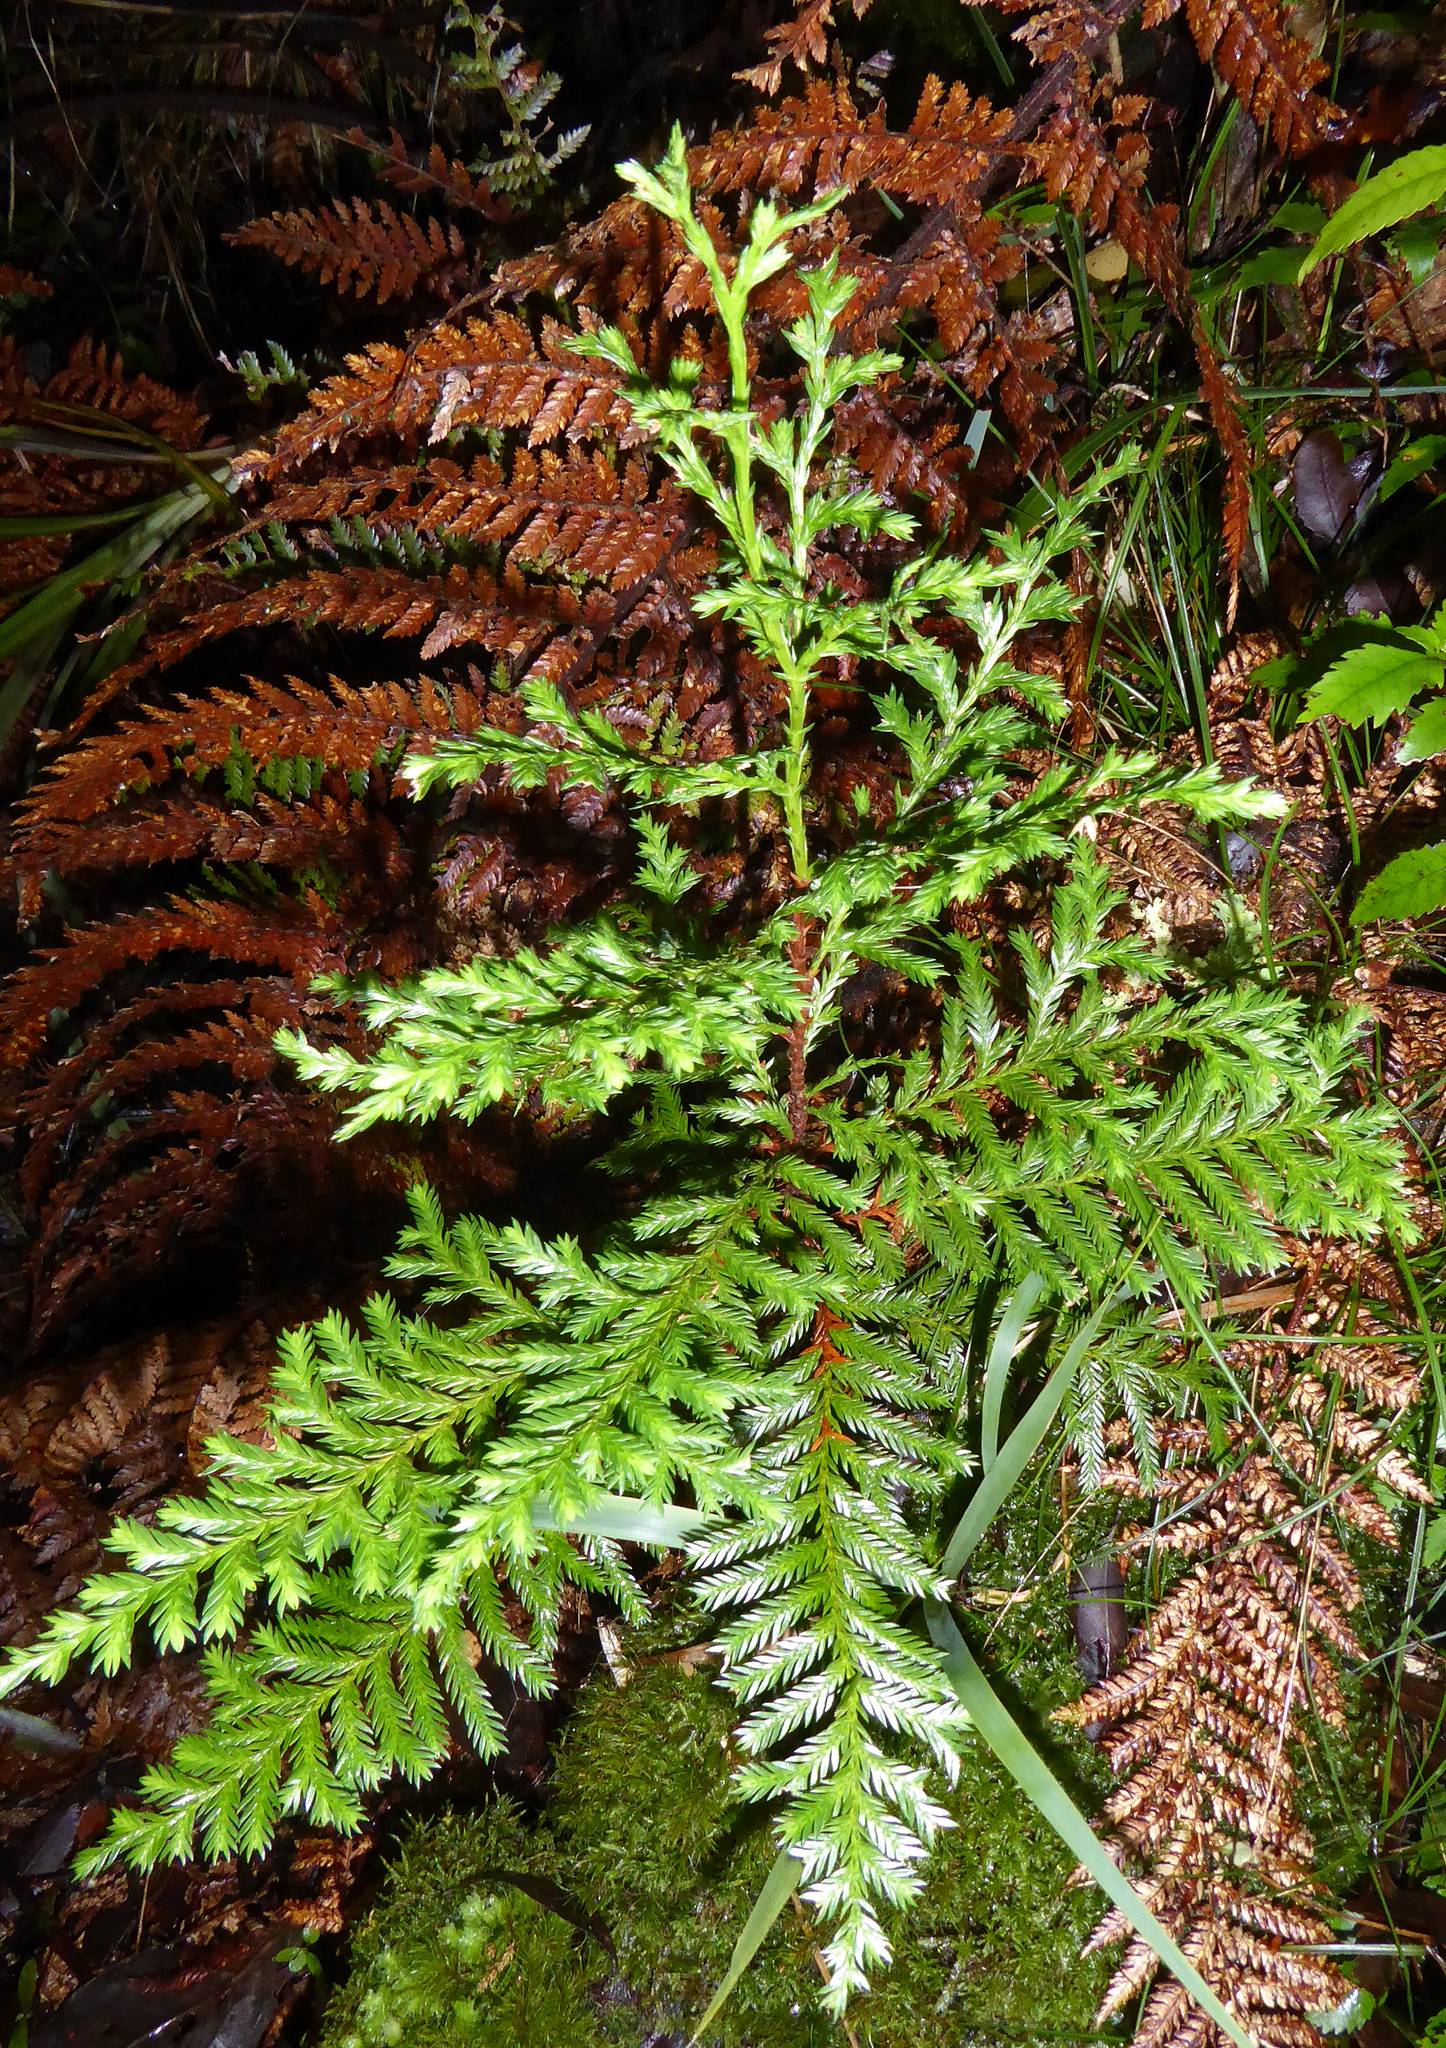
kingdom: Plantae
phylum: Tracheophyta
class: Pinopsida
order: Pinales
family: Cupressaceae
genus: Libocedrus
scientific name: Libocedrus bidwillii
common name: Cedar
